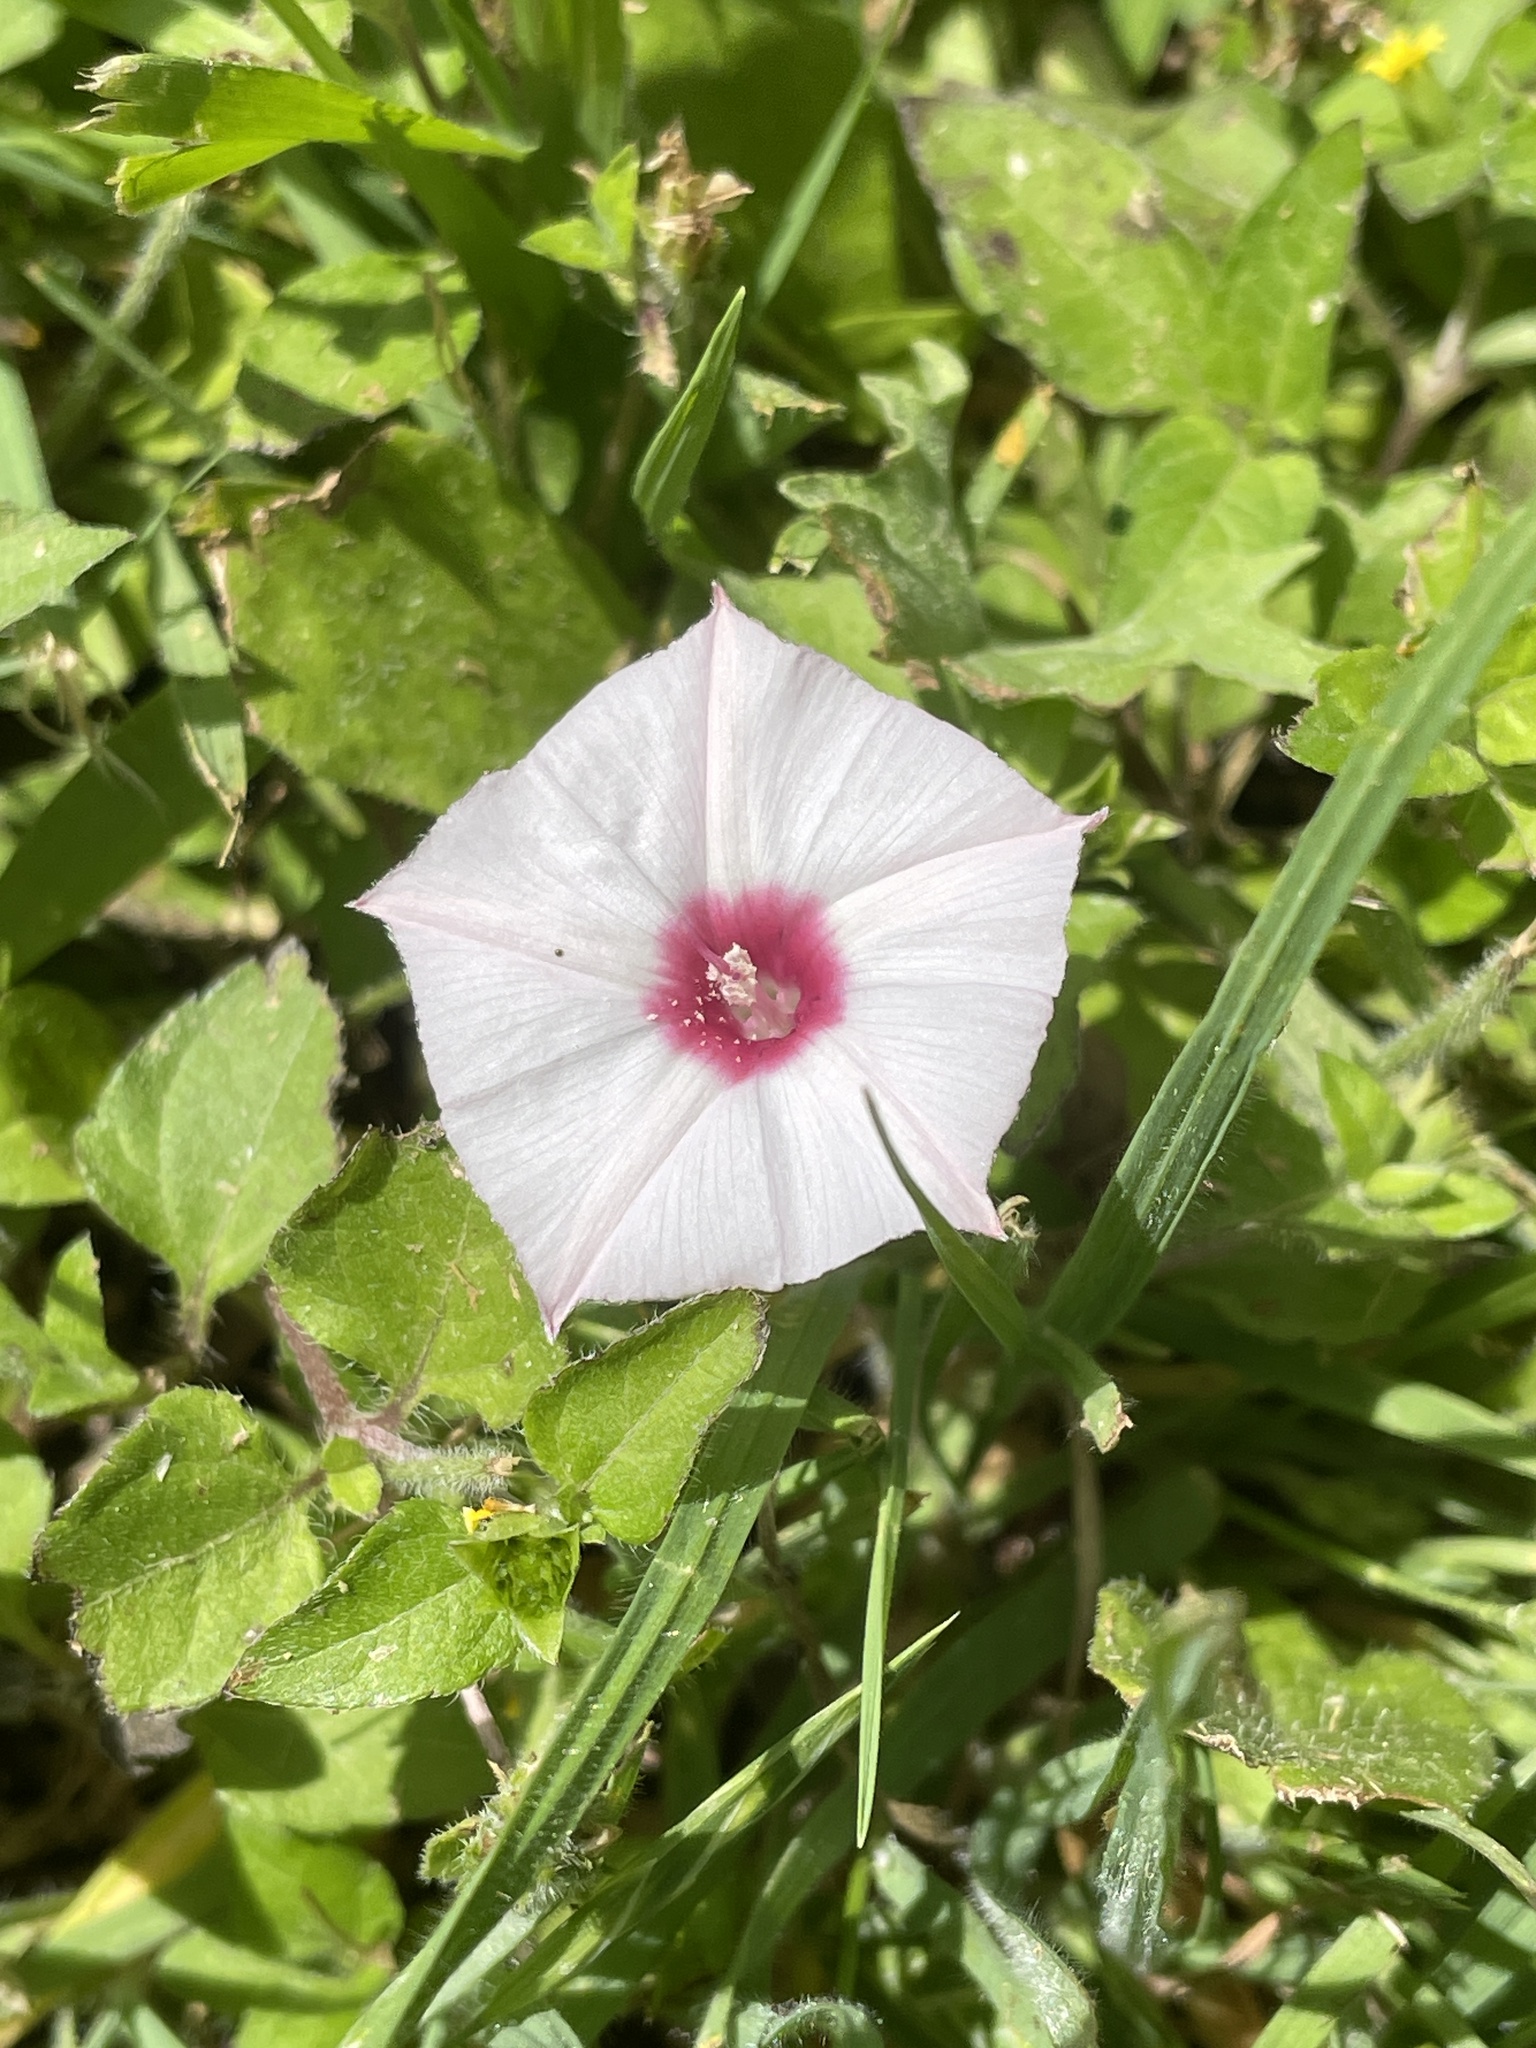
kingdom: Plantae
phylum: Tracheophyta
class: Magnoliopsida
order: Solanales
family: Convolvulaceae
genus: Convolvulus
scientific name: Convolvulus equitans
